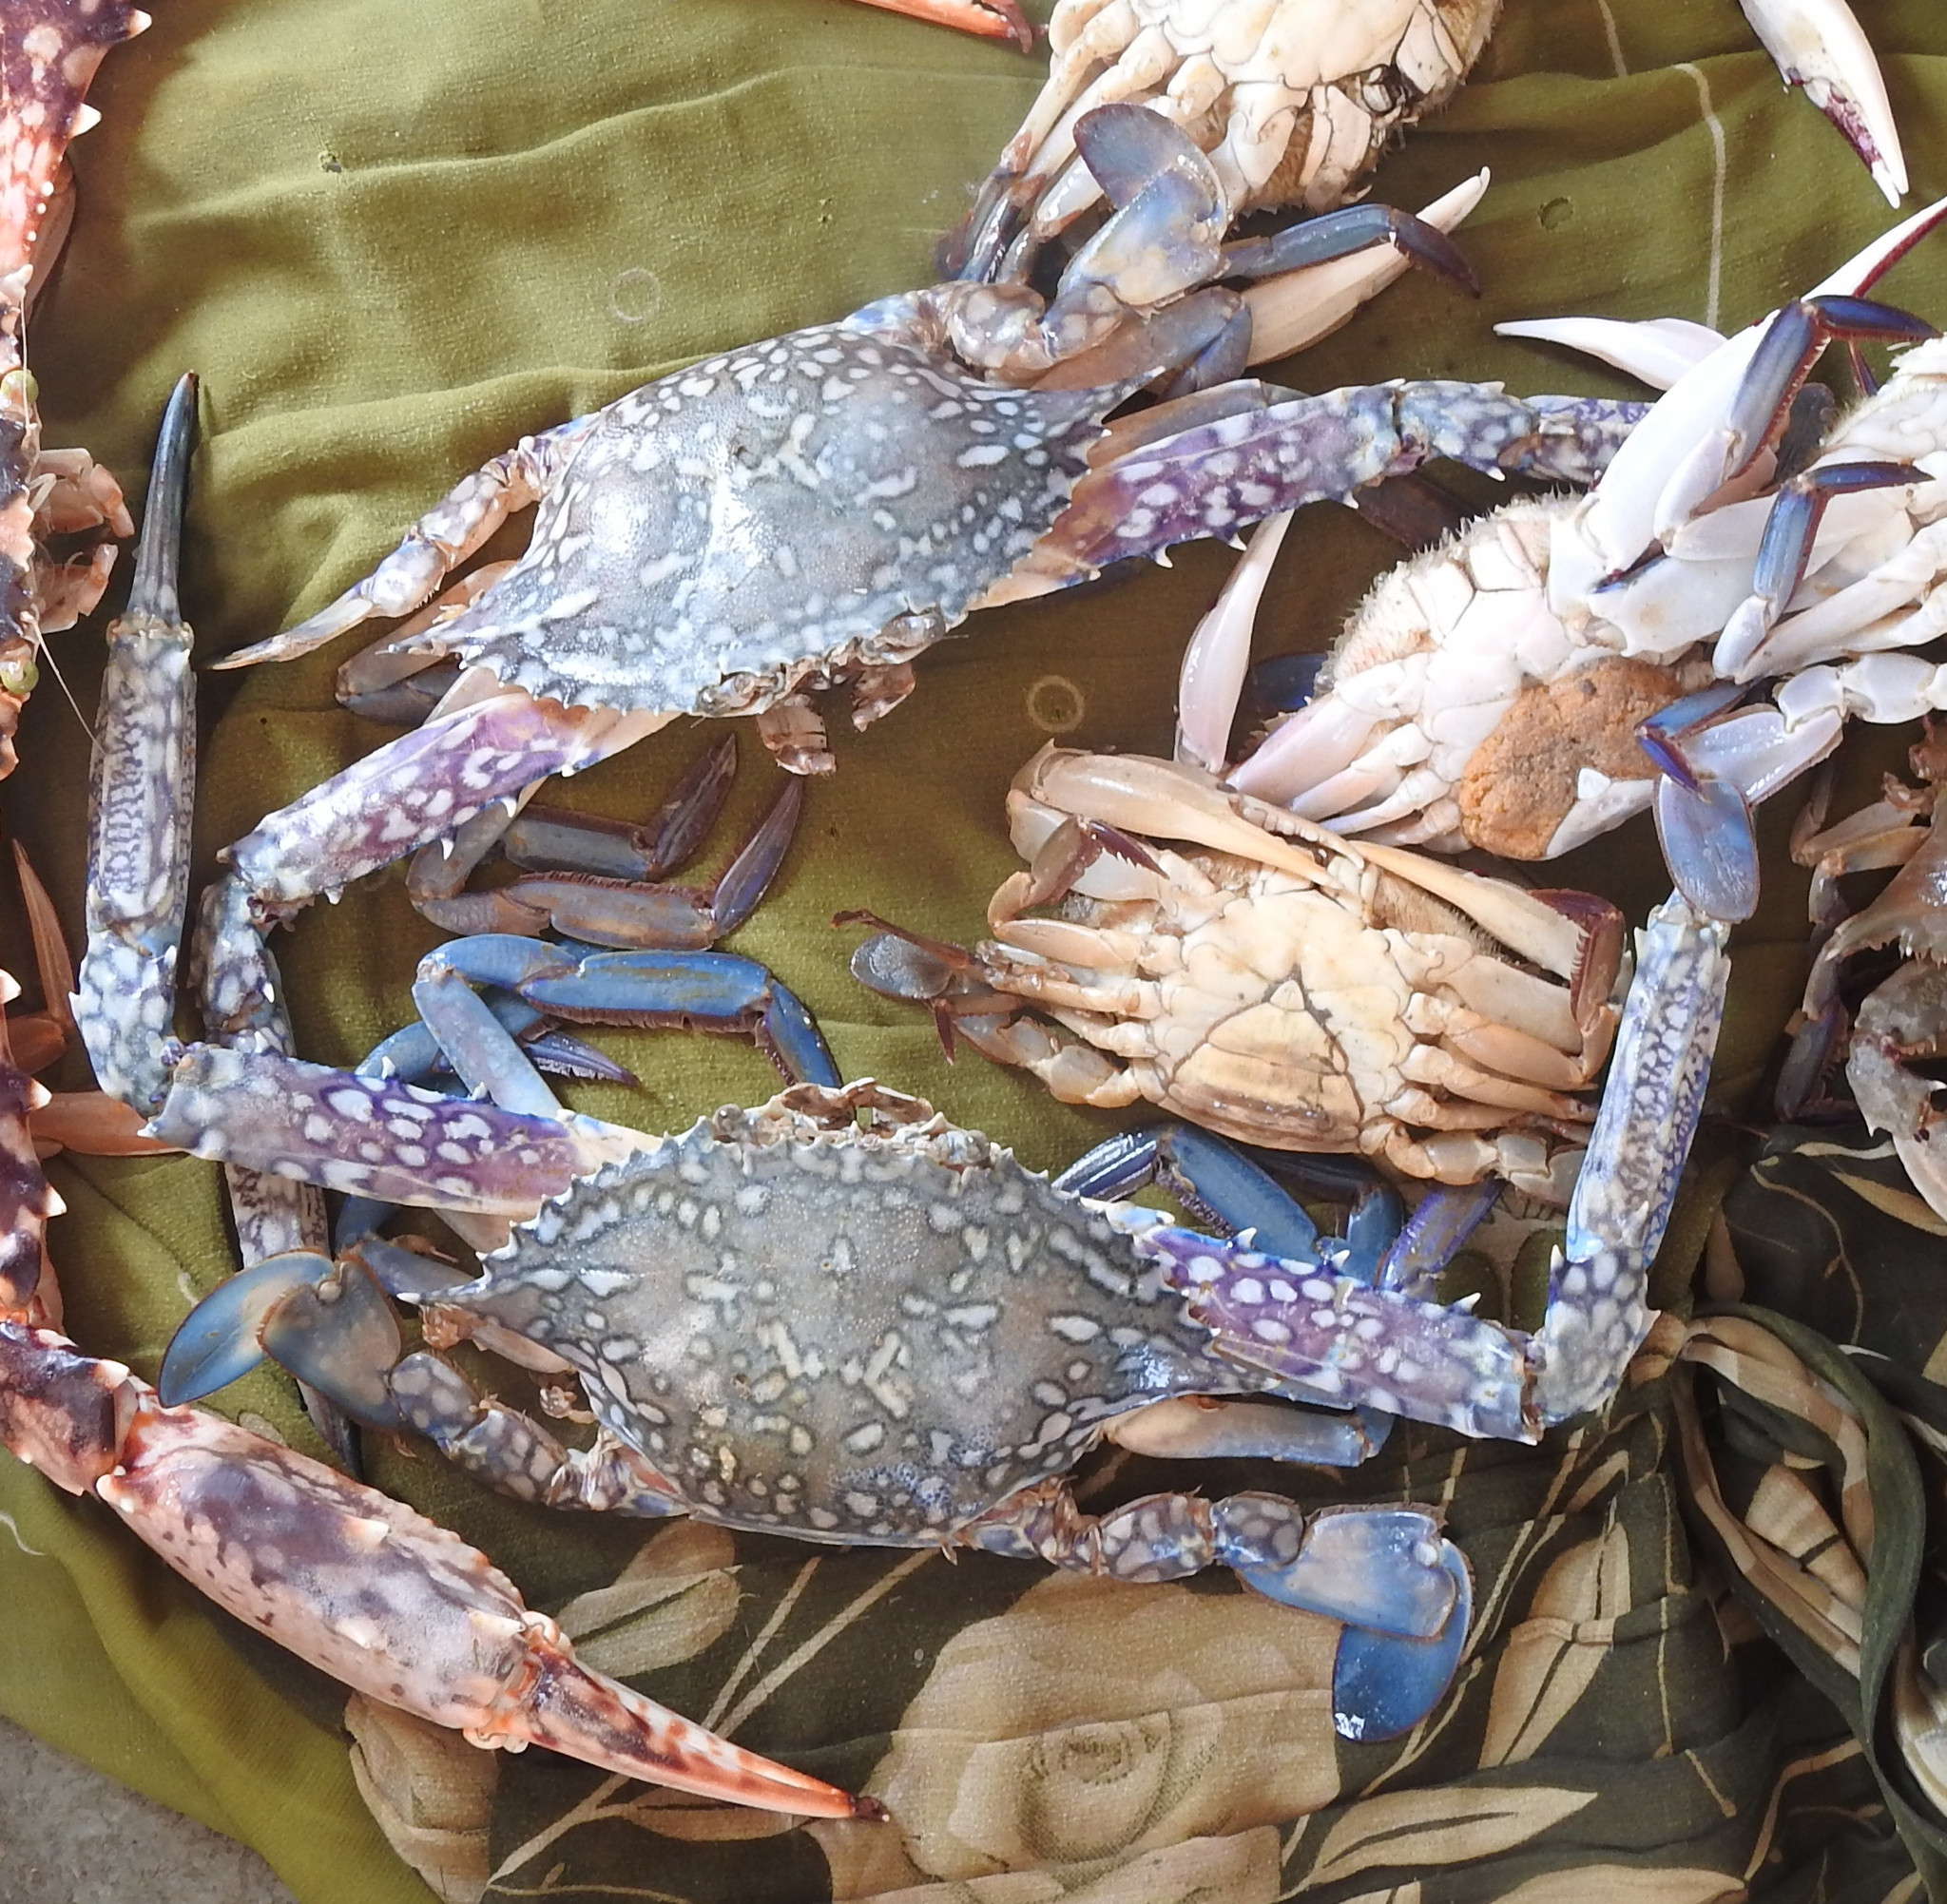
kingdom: Animalia
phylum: Arthropoda
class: Malacostraca
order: Decapoda
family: Portunidae
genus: Portunus
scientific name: Portunus pelagicus
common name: Blue swimming crab
